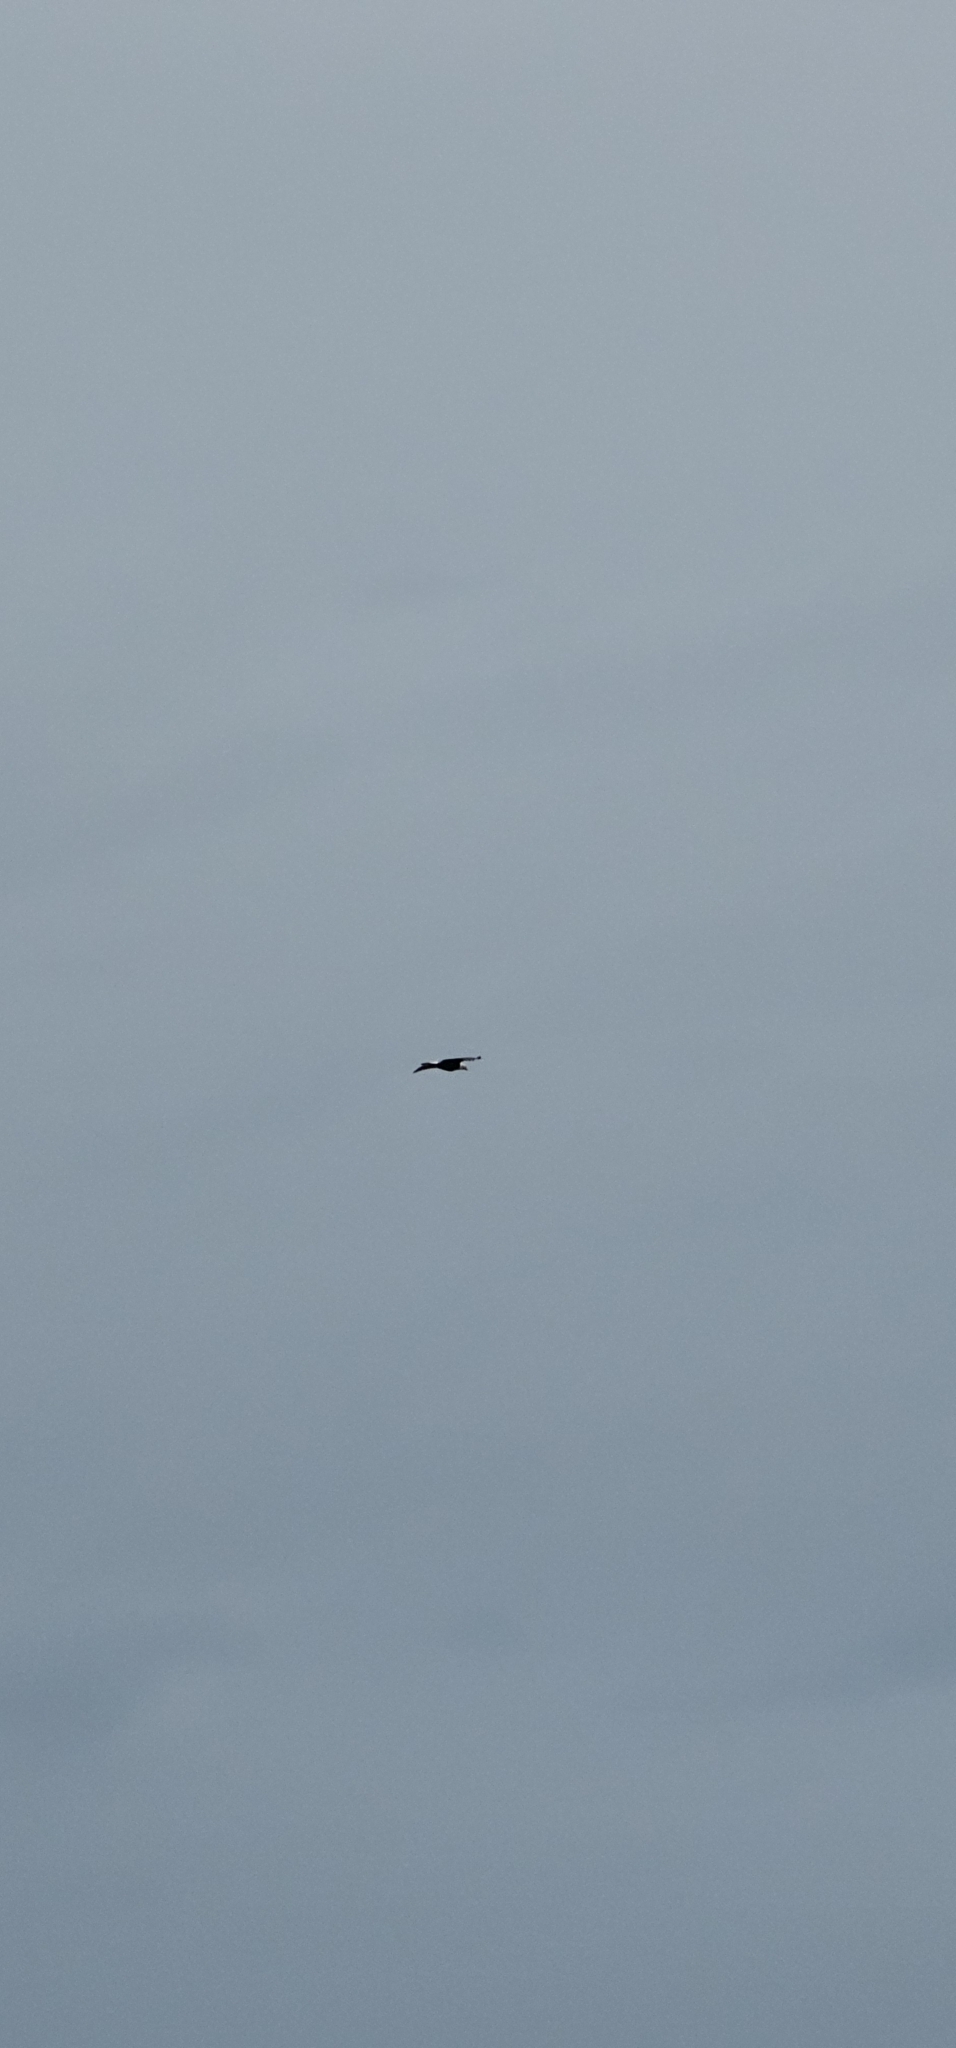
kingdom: Animalia
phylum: Chordata
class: Aves
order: Accipitriformes
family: Accipitridae
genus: Haliaeetus
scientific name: Haliaeetus leucocephalus
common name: Bald eagle
